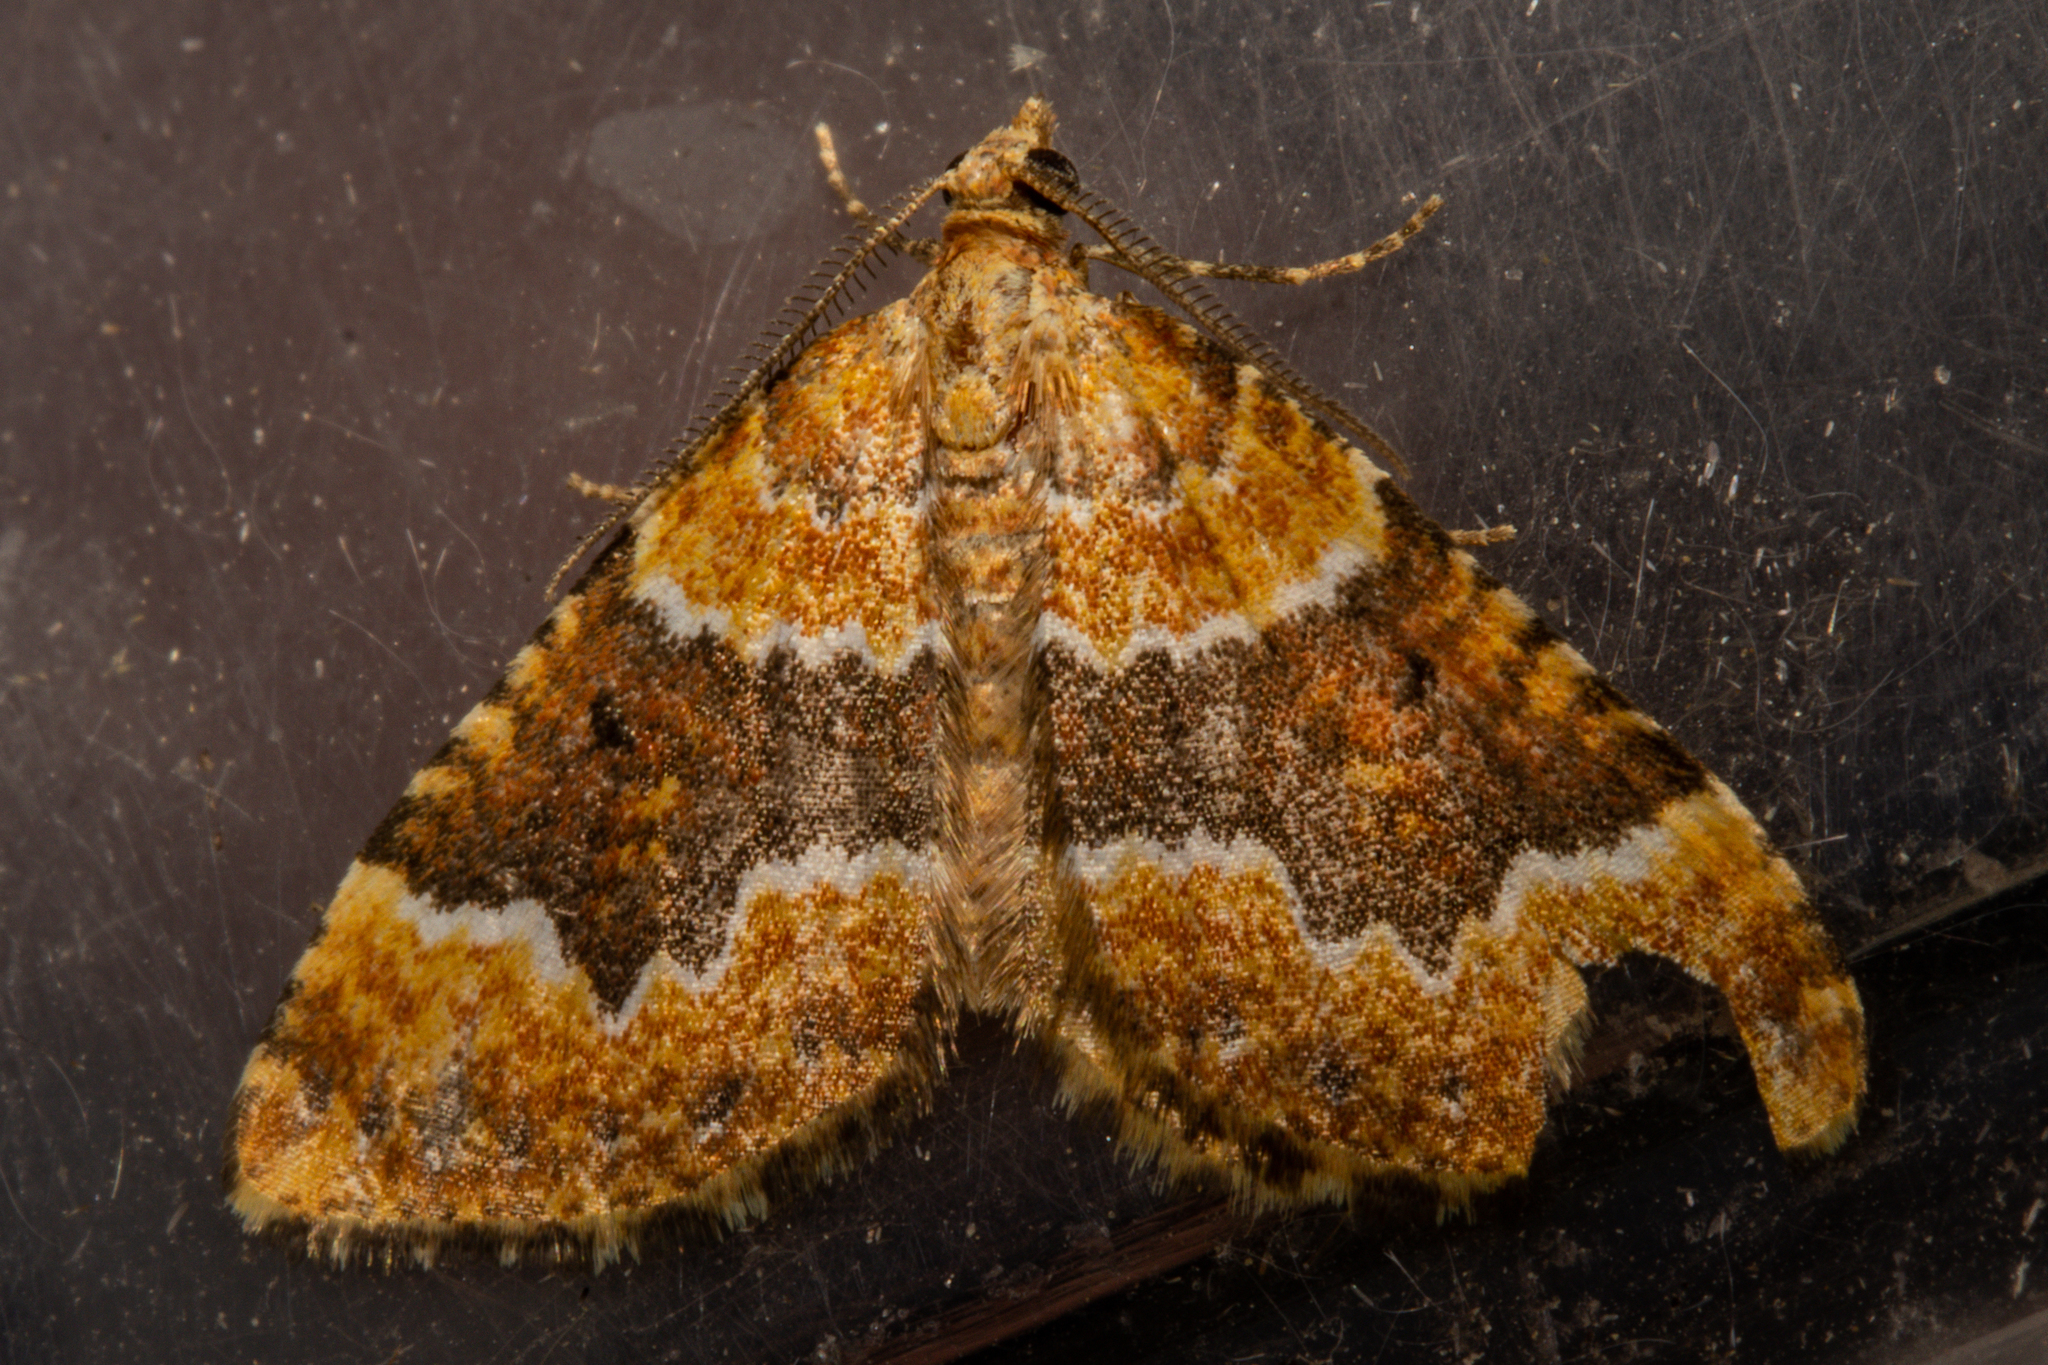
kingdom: Animalia
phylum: Arthropoda
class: Insecta
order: Lepidoptera
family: Geometridae
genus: Asaphodes
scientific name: Asaphodes prasinias
